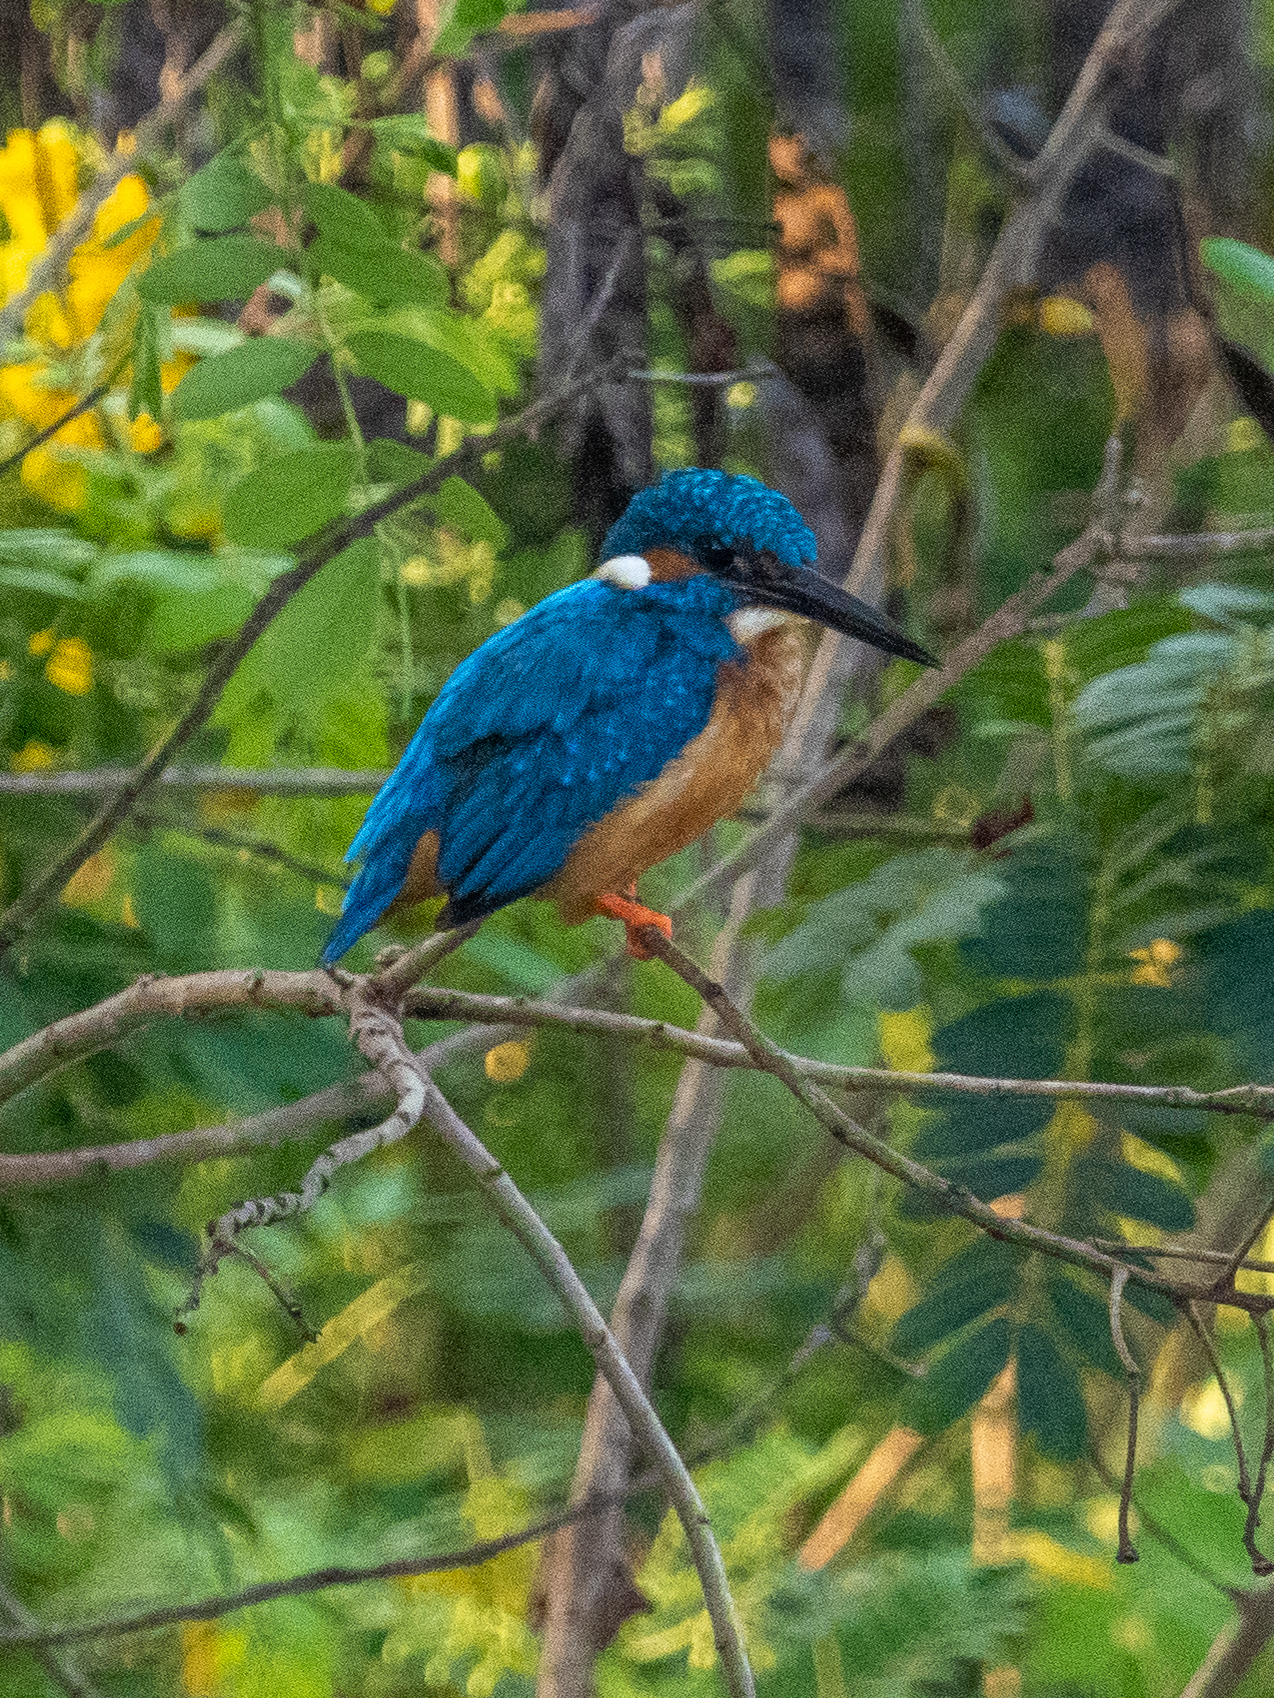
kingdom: Animalia
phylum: Chordata
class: Aves
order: Coraciiformes
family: Alcedinidae
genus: Alcedo
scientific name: Alcedo atthis
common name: Common kingfisher
